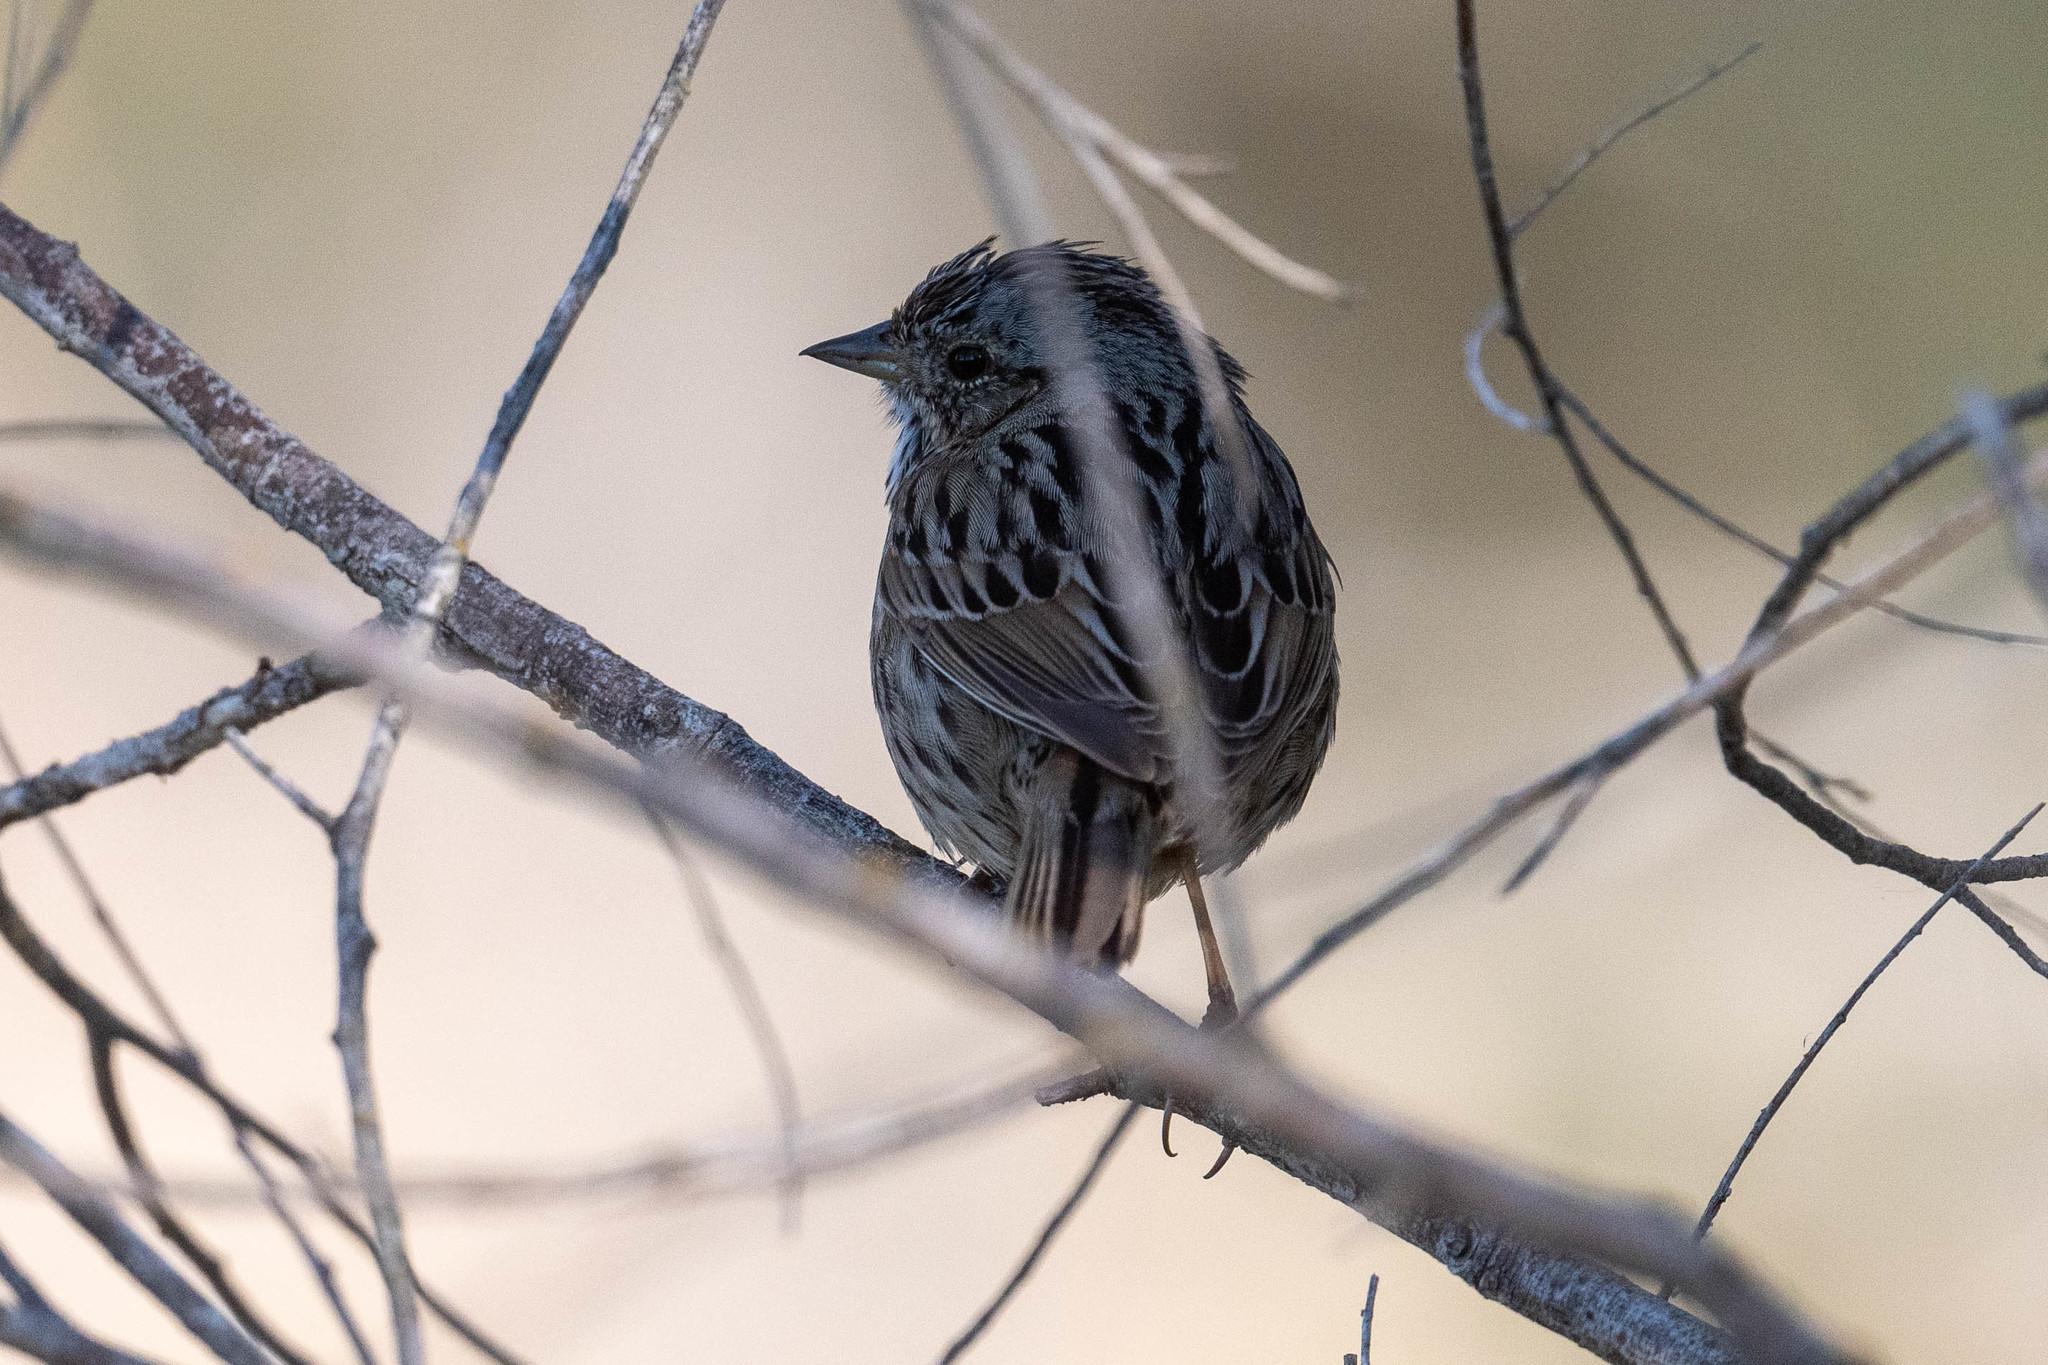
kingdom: Animalia
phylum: Chordata
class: Aves
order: Passeriformes
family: Passerellidae
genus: Melospiza
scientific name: Melospiza lincolnii
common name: Lincoln's sparrow
